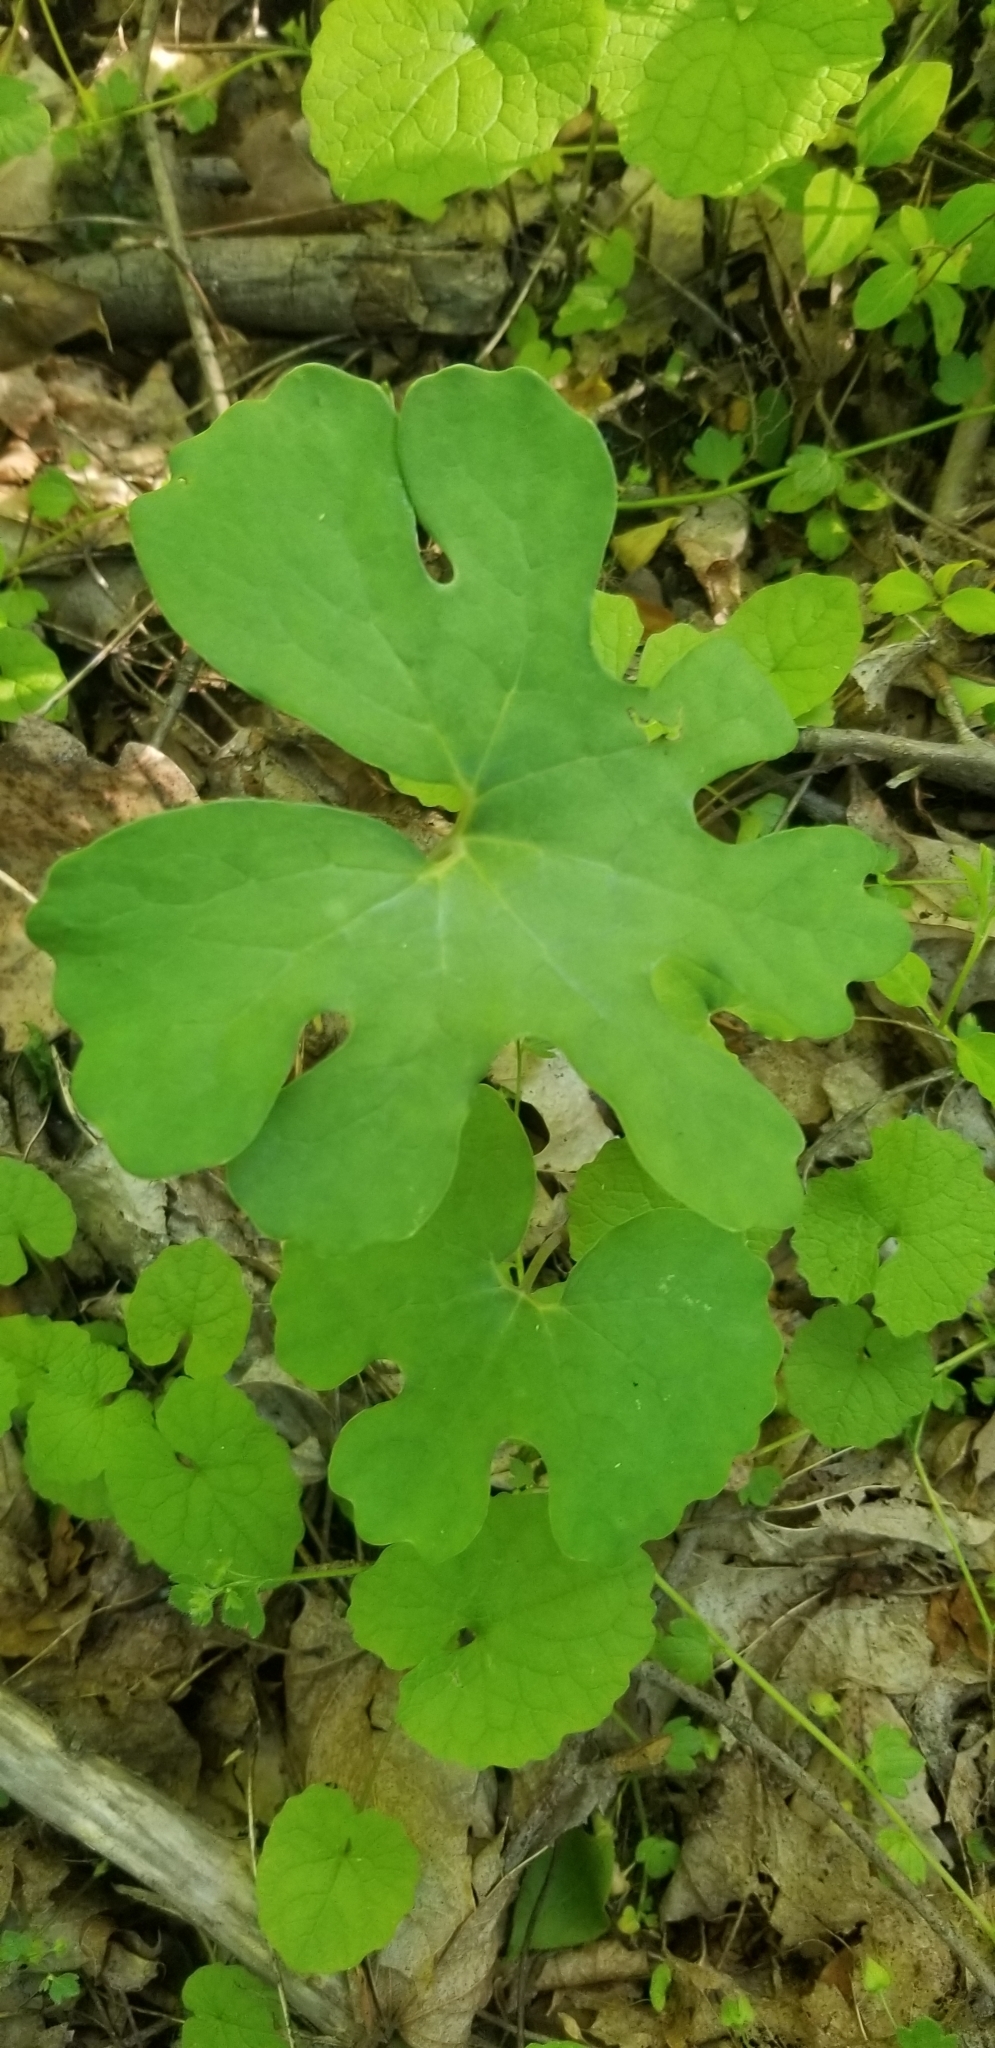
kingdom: Plantae
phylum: Tracheophyta
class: Magnoliopsida
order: Ranunculales
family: Papaveraceae
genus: Sanguinaria
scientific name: Sanguinaria canadensis
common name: Bloodroot
